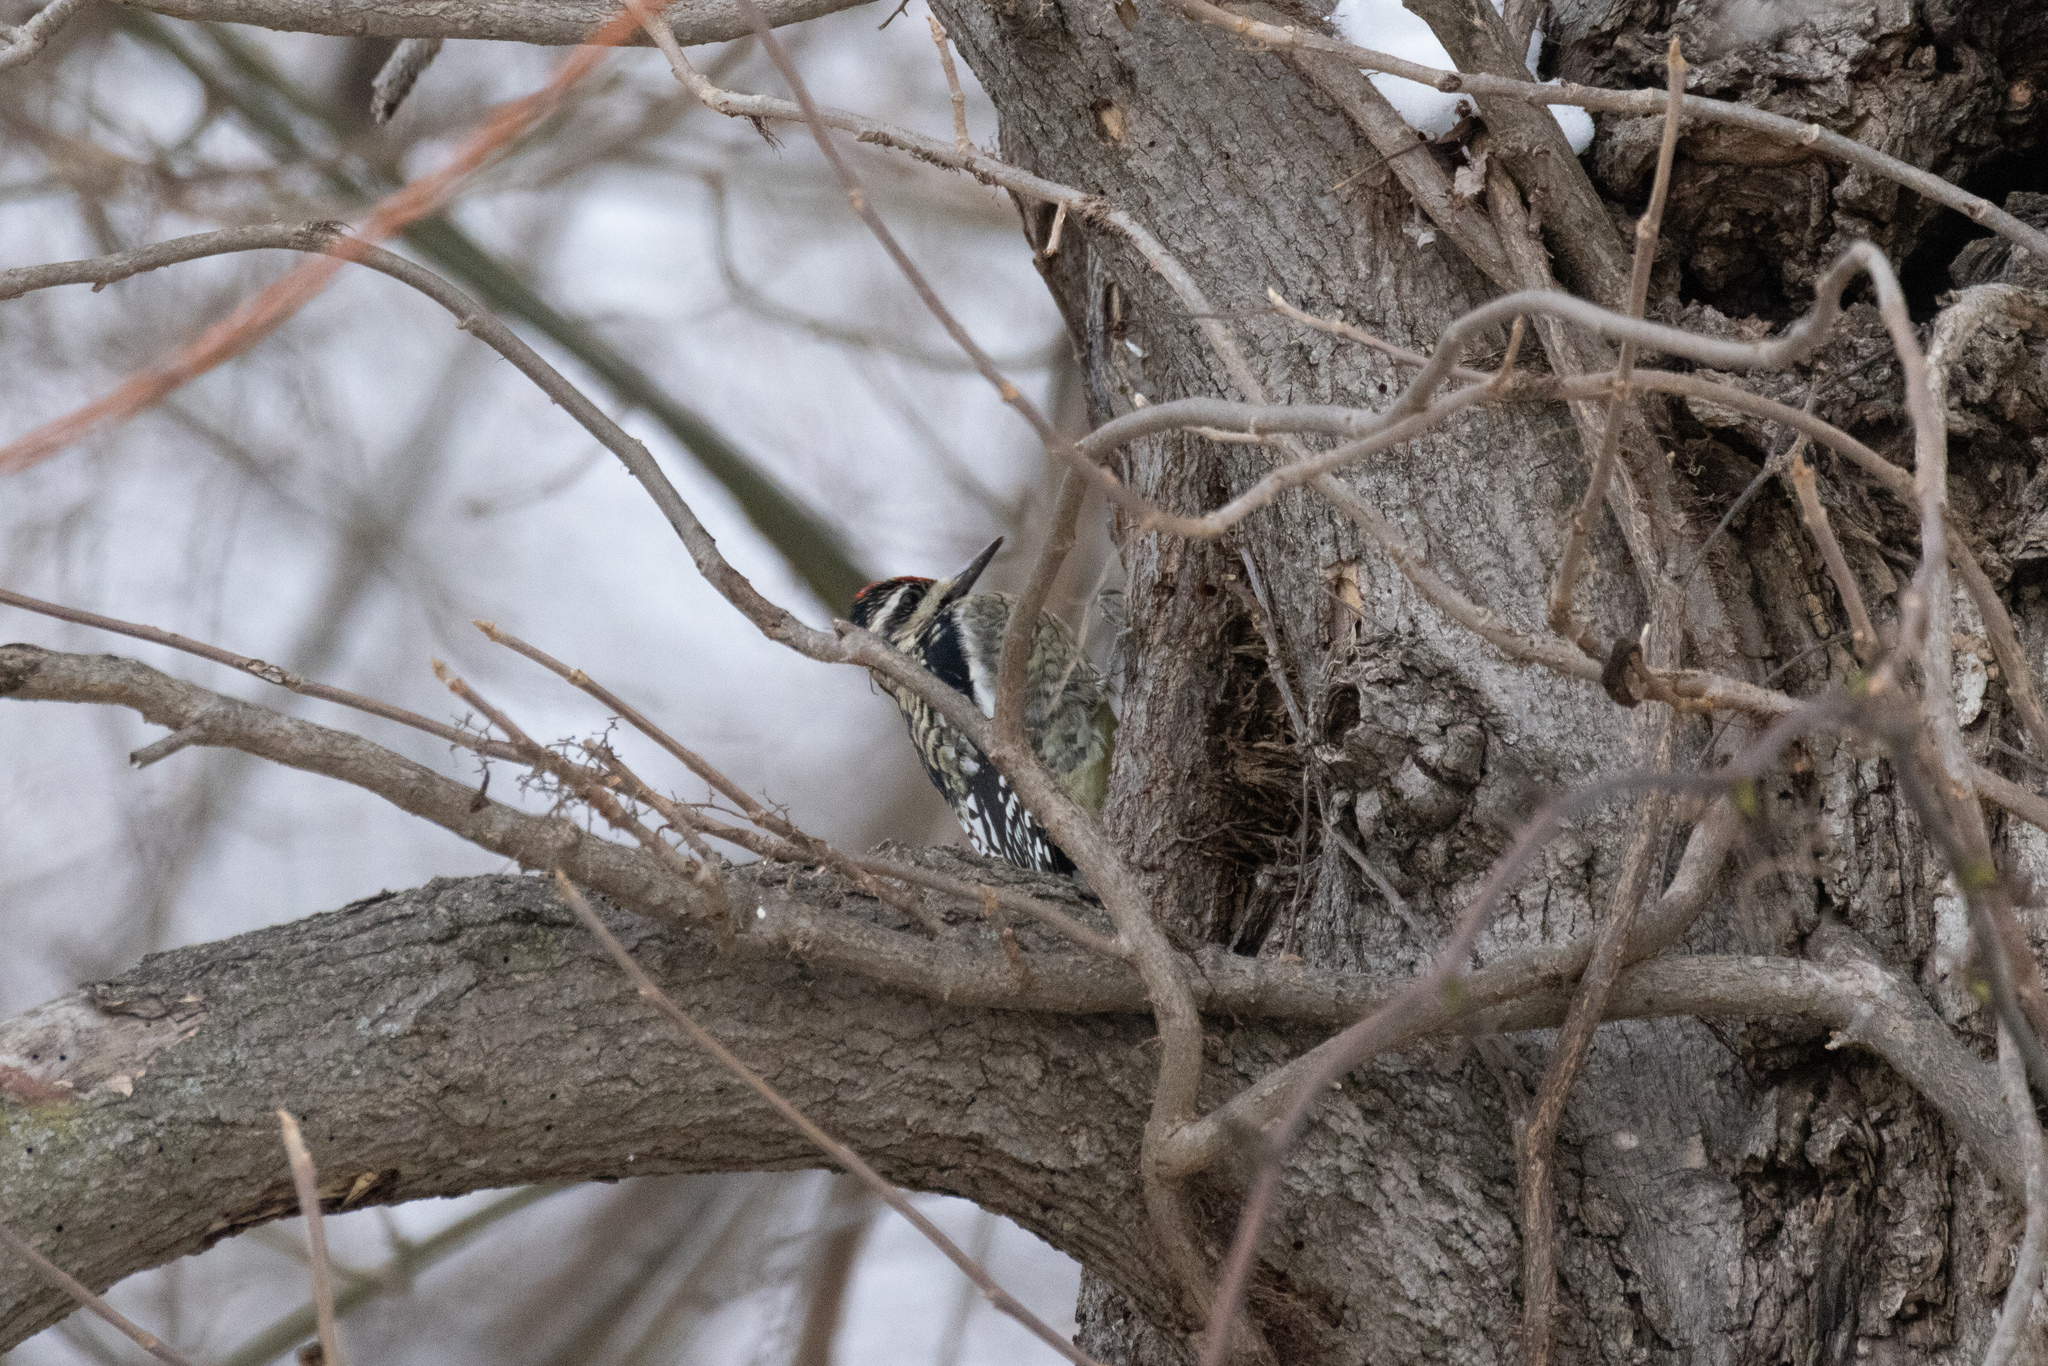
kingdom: Animalia
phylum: Chordata
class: Aves
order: Piciformes
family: Picidae
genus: Sphyrapicus
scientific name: Sphyrapicus varius
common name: Yellow-bellied sapsucker
